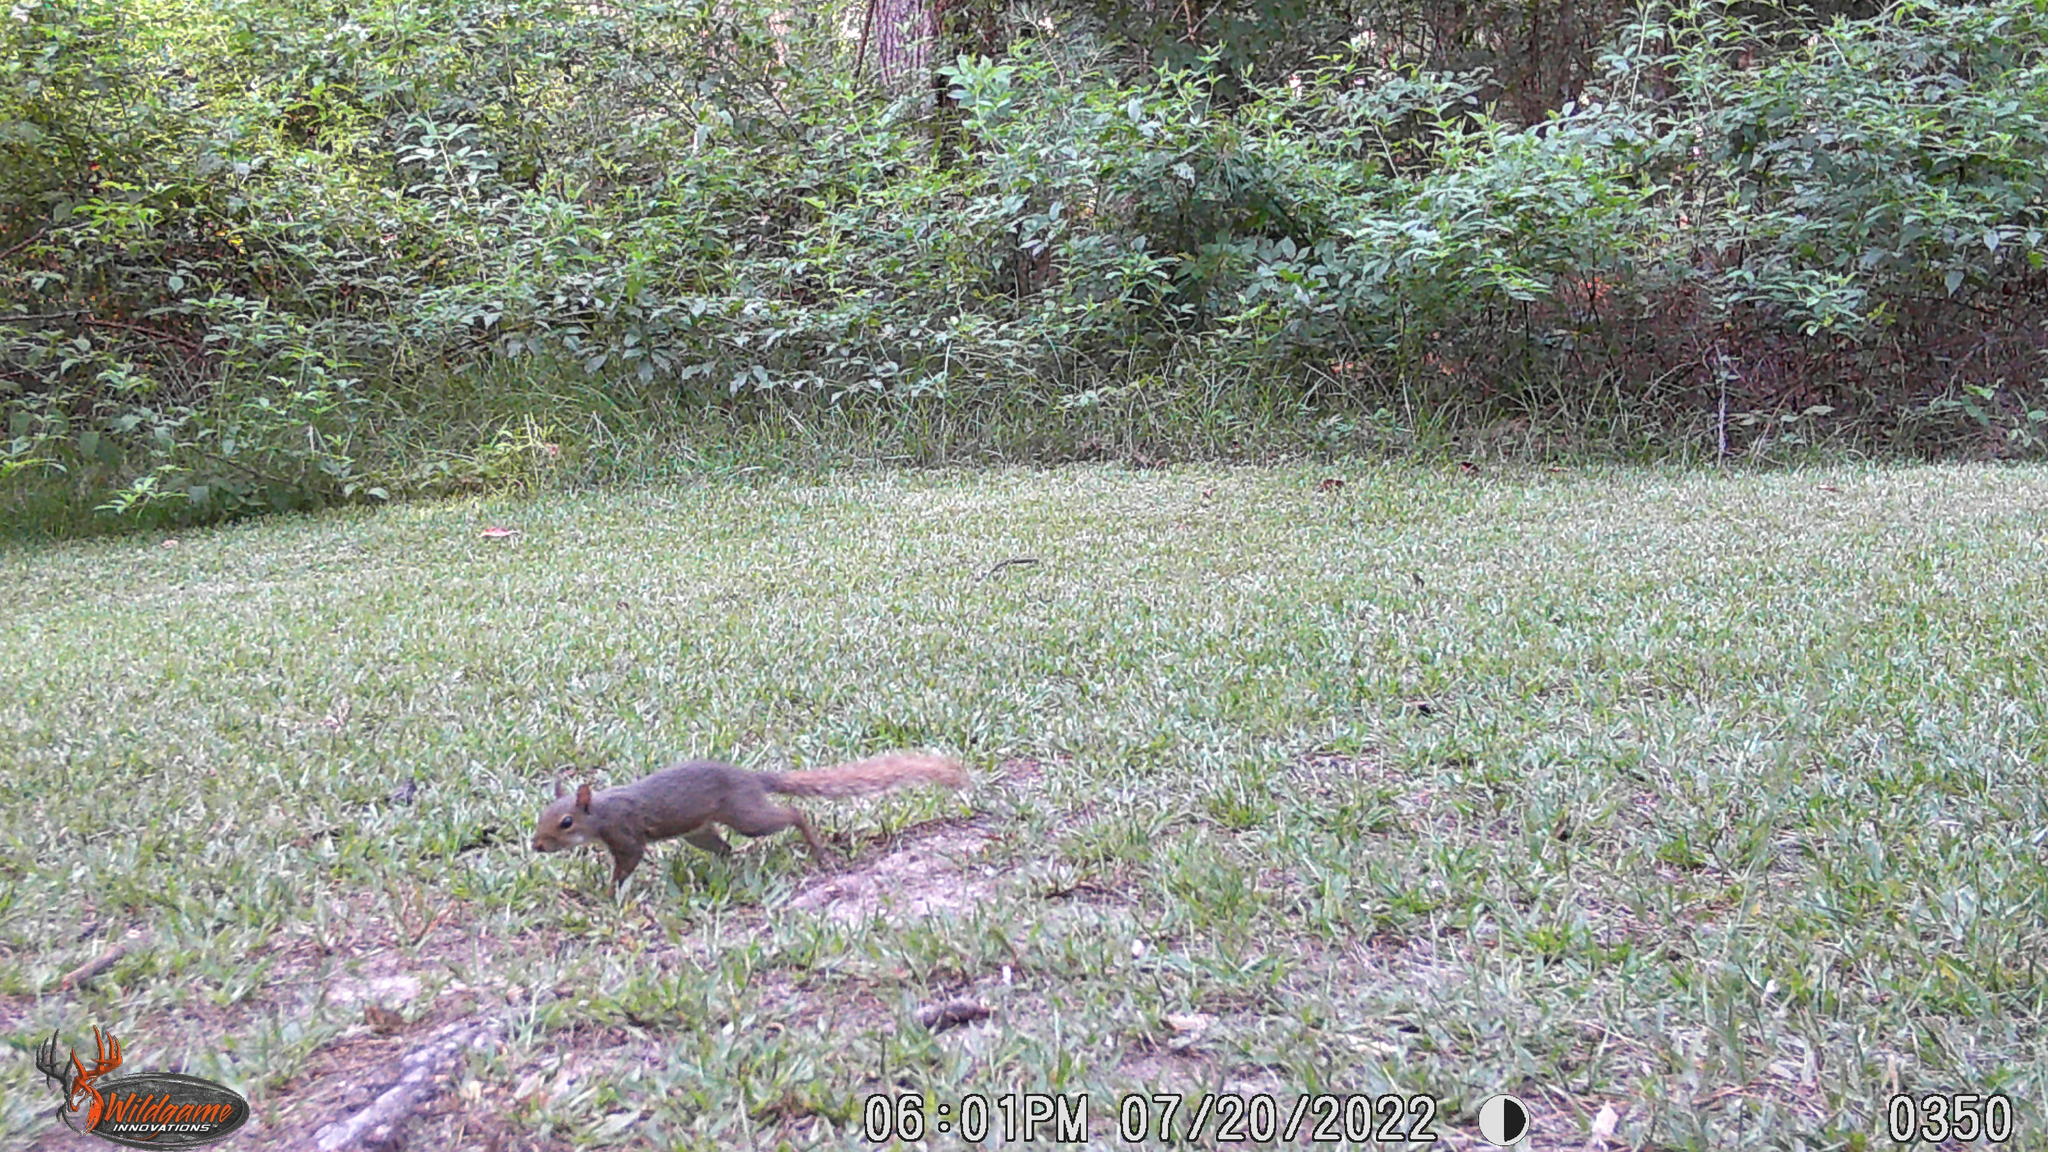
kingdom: Animalia
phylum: Chordata
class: Mammalia
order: Rodentia
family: Sciuridae
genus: Sciurus
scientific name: Sciurus carolinensis
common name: Eastern gray squirrel
